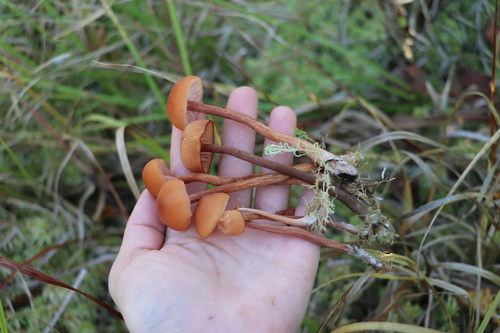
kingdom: Fungi
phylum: Basidiomycota
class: Agaricomycetes
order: Agaricales
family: Hydnangiaceae
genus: Laccaria
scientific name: Laccaria laccata
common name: Deceiver
